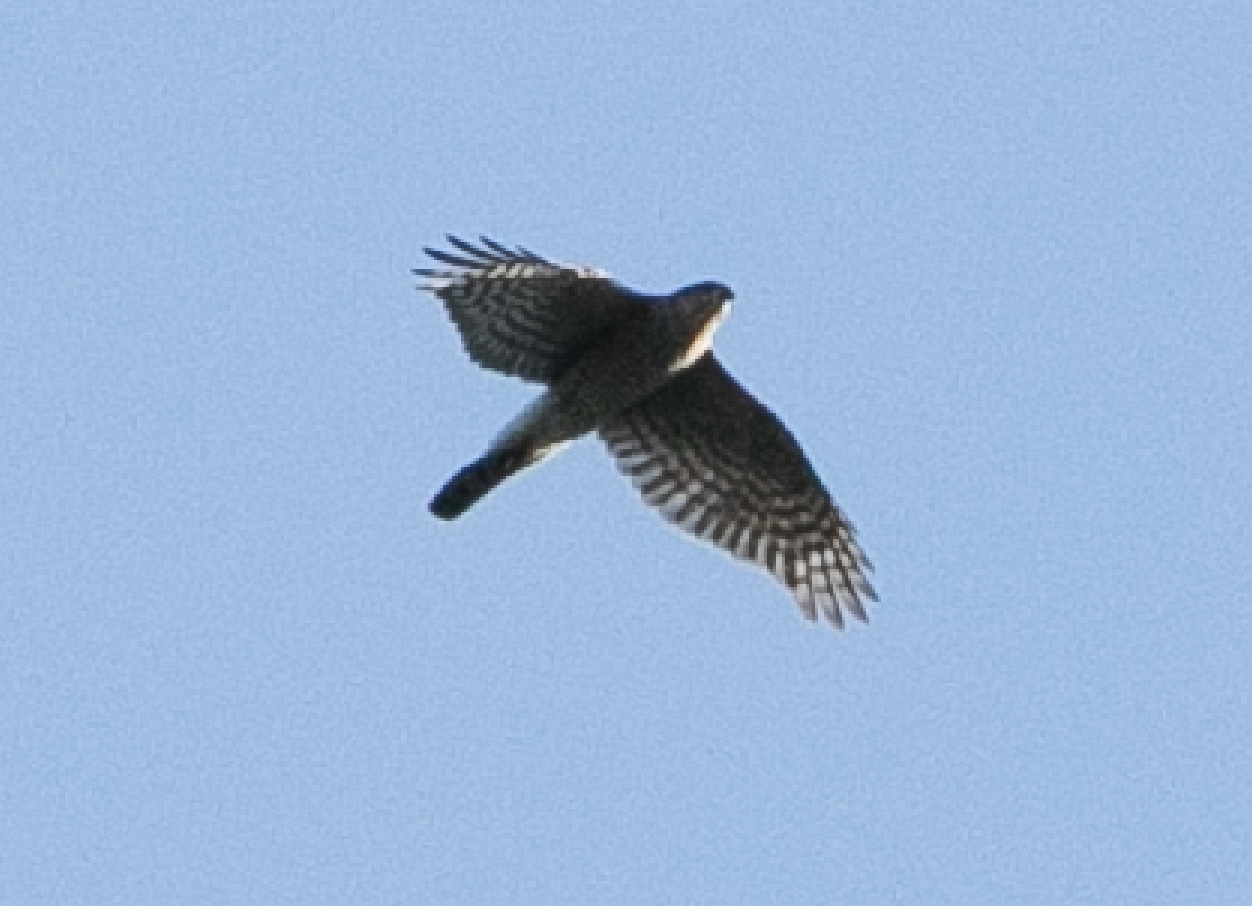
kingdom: Animalia
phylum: Chordata
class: Aves
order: Accipitriformes
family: Accipitridae
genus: Accipiter
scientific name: Accipiter nisus
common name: Eurasian sparrowhawk
